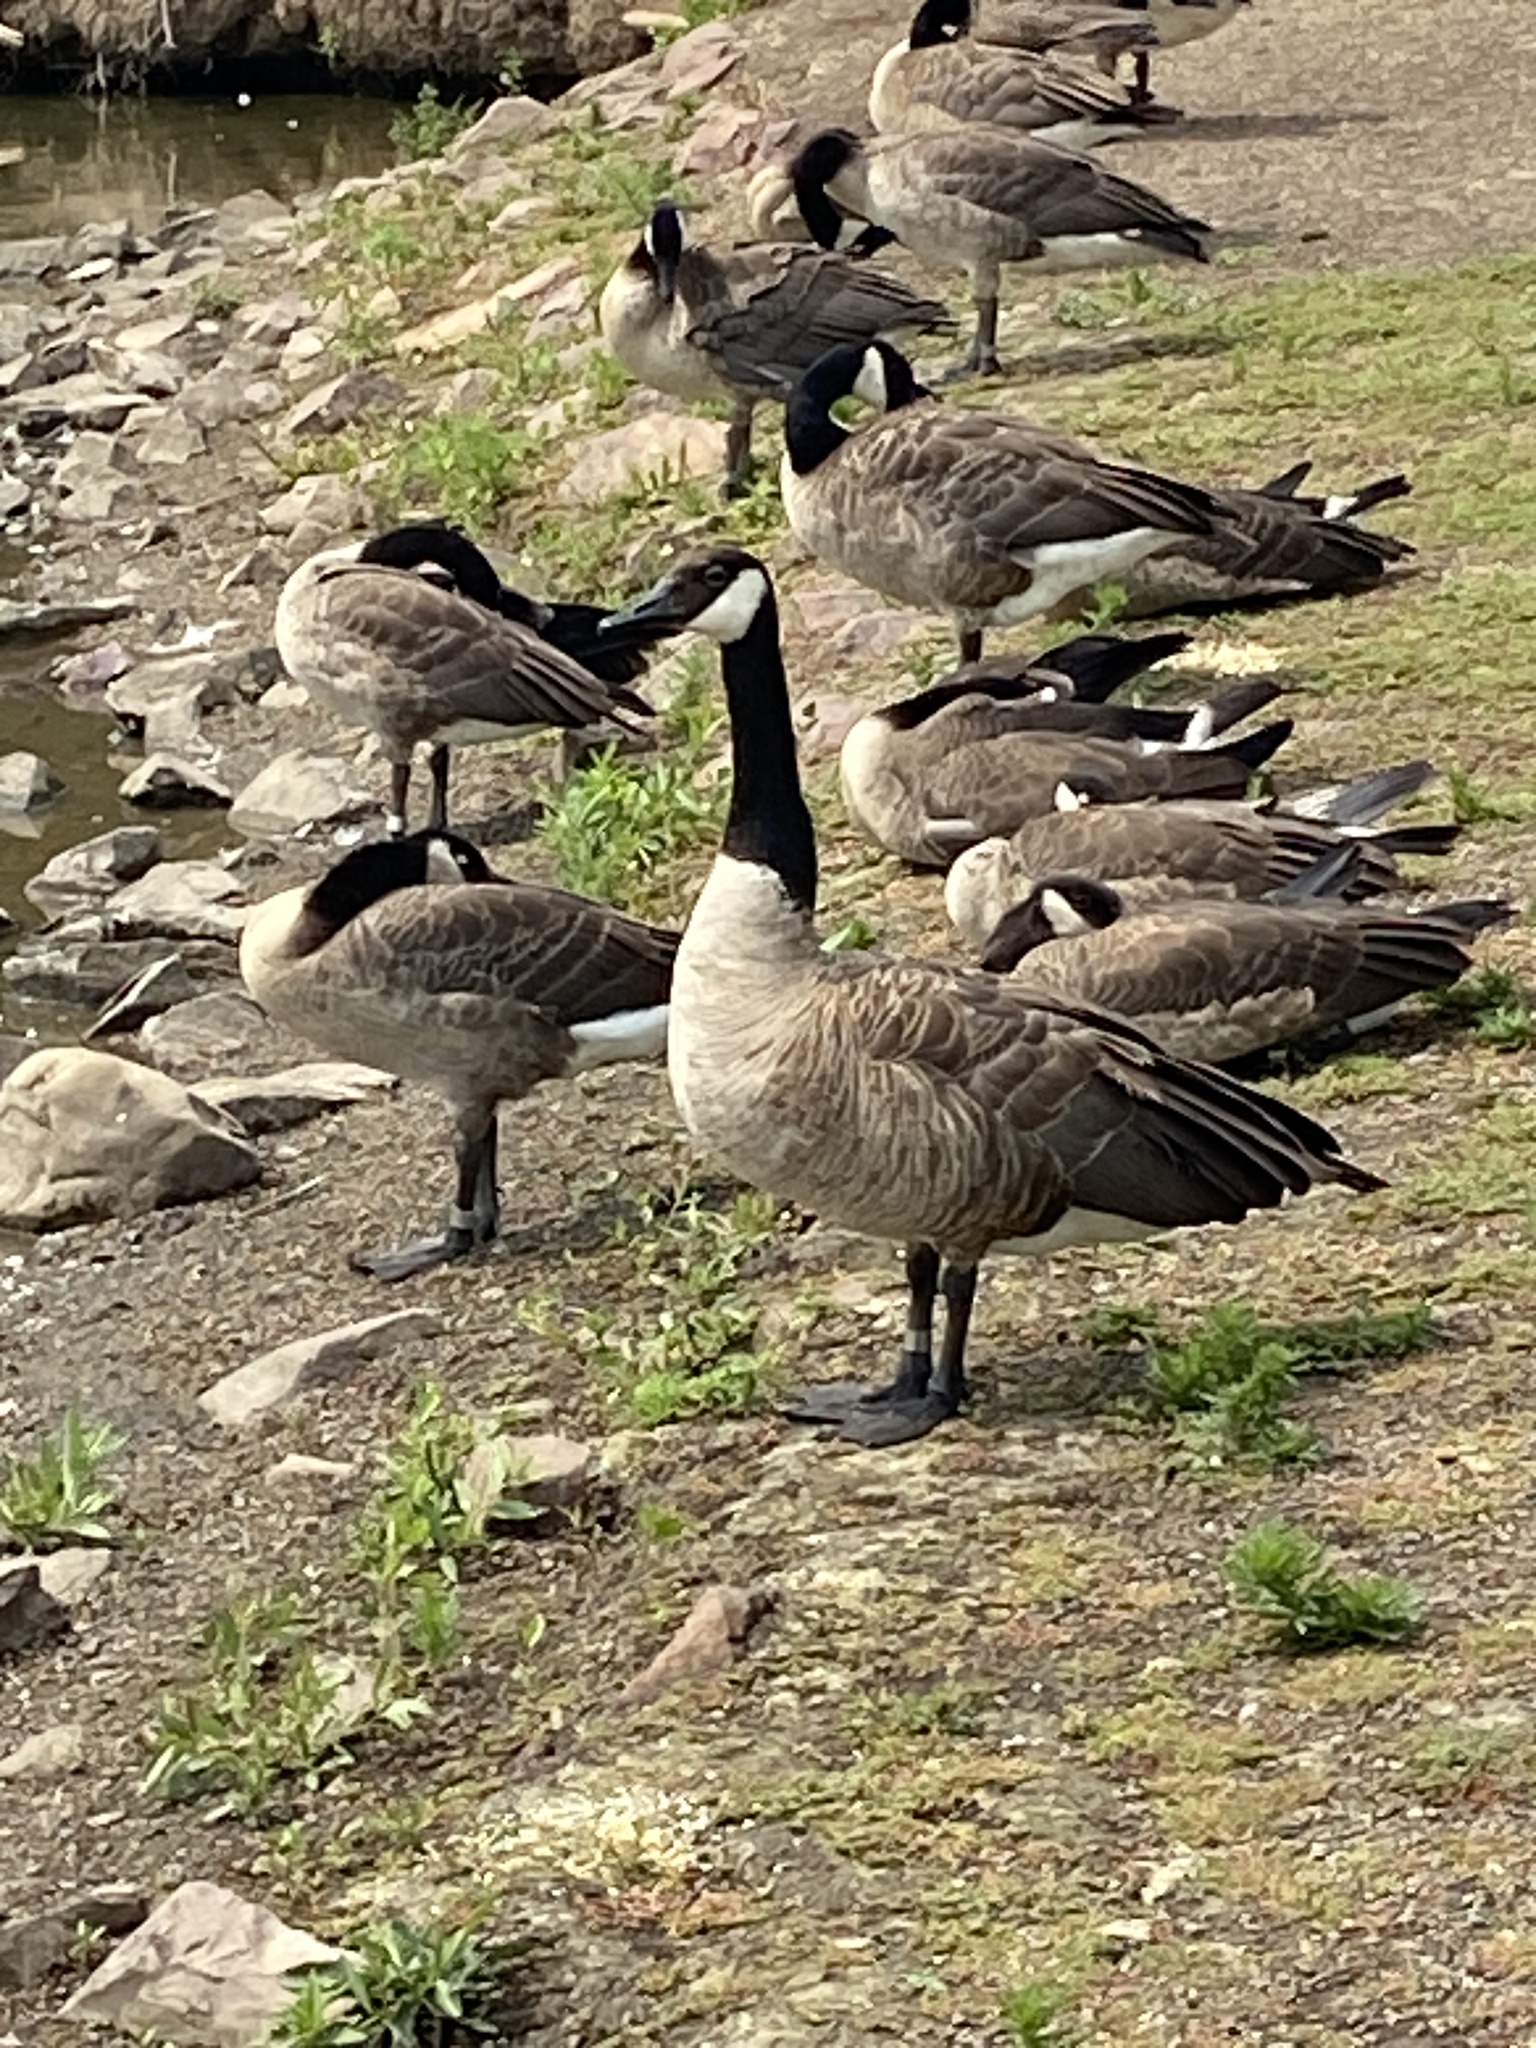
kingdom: Animalia
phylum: Chordata
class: Aves
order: Anseriformes
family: Anatidae
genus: Branta
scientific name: Branta canadensis
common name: Canada goose
